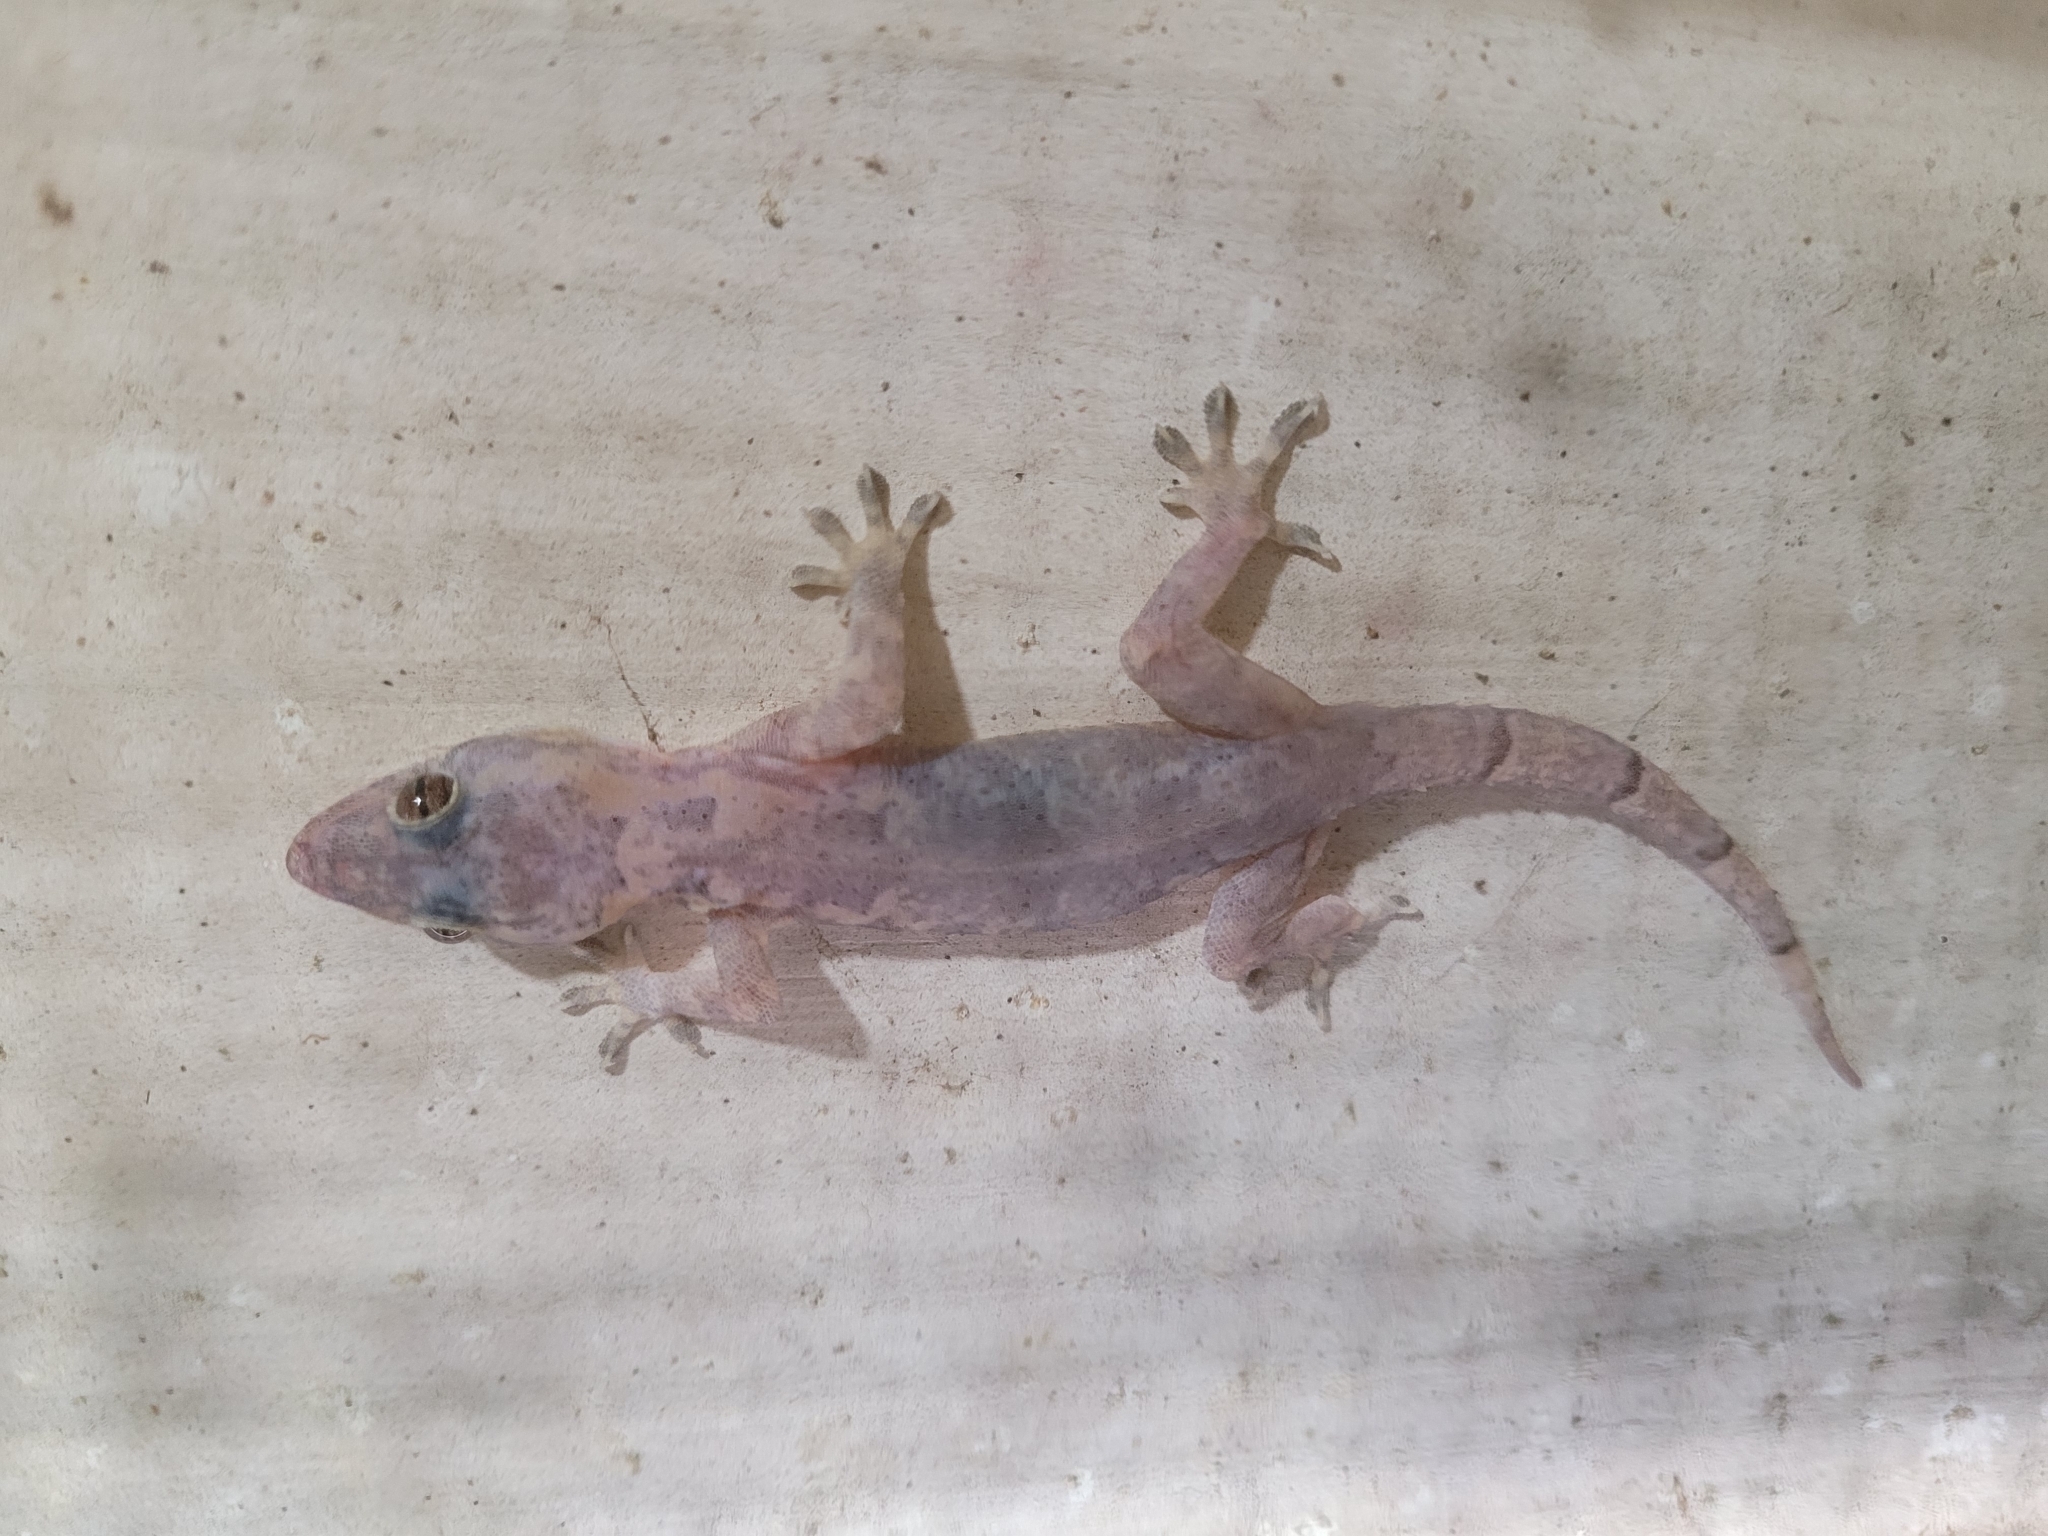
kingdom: Animalia
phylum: Chordata
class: Squamata
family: Gekkonidae
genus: Hemidactylus
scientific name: Hemidactylus mabouia
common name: House gecko
